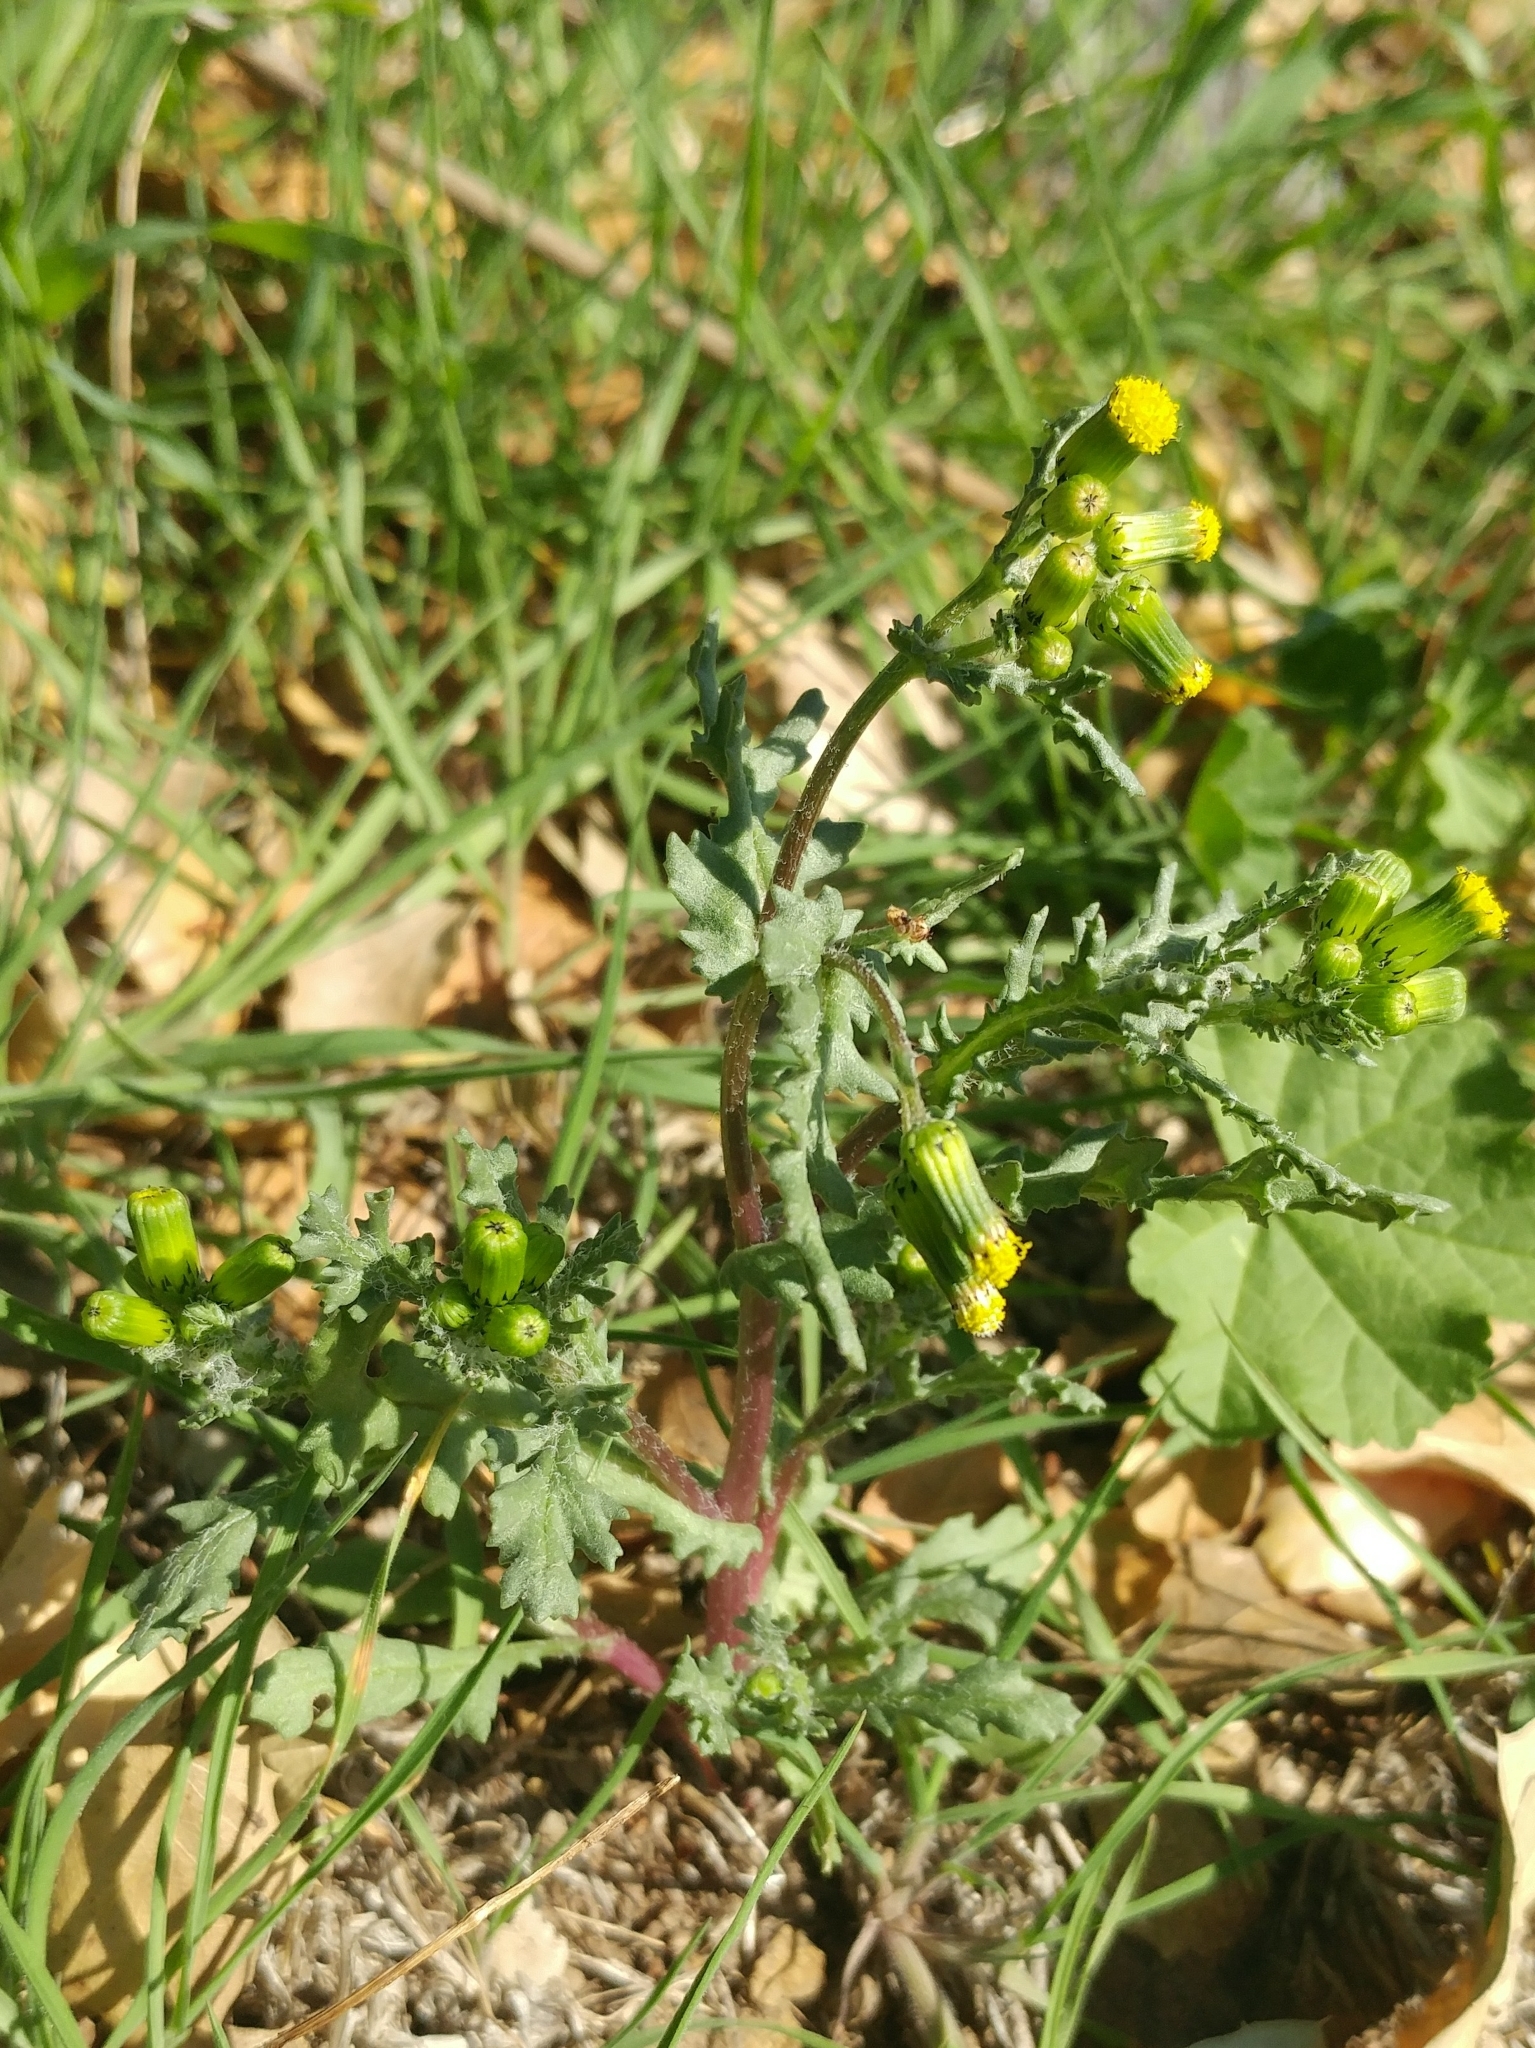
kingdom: Plantae
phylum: Tracheophyta
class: Magnoliopsida
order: Asterales
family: Asteraceae
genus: Senecio
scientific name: Senecio vulgaris
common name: Old-man-in-the-spring
